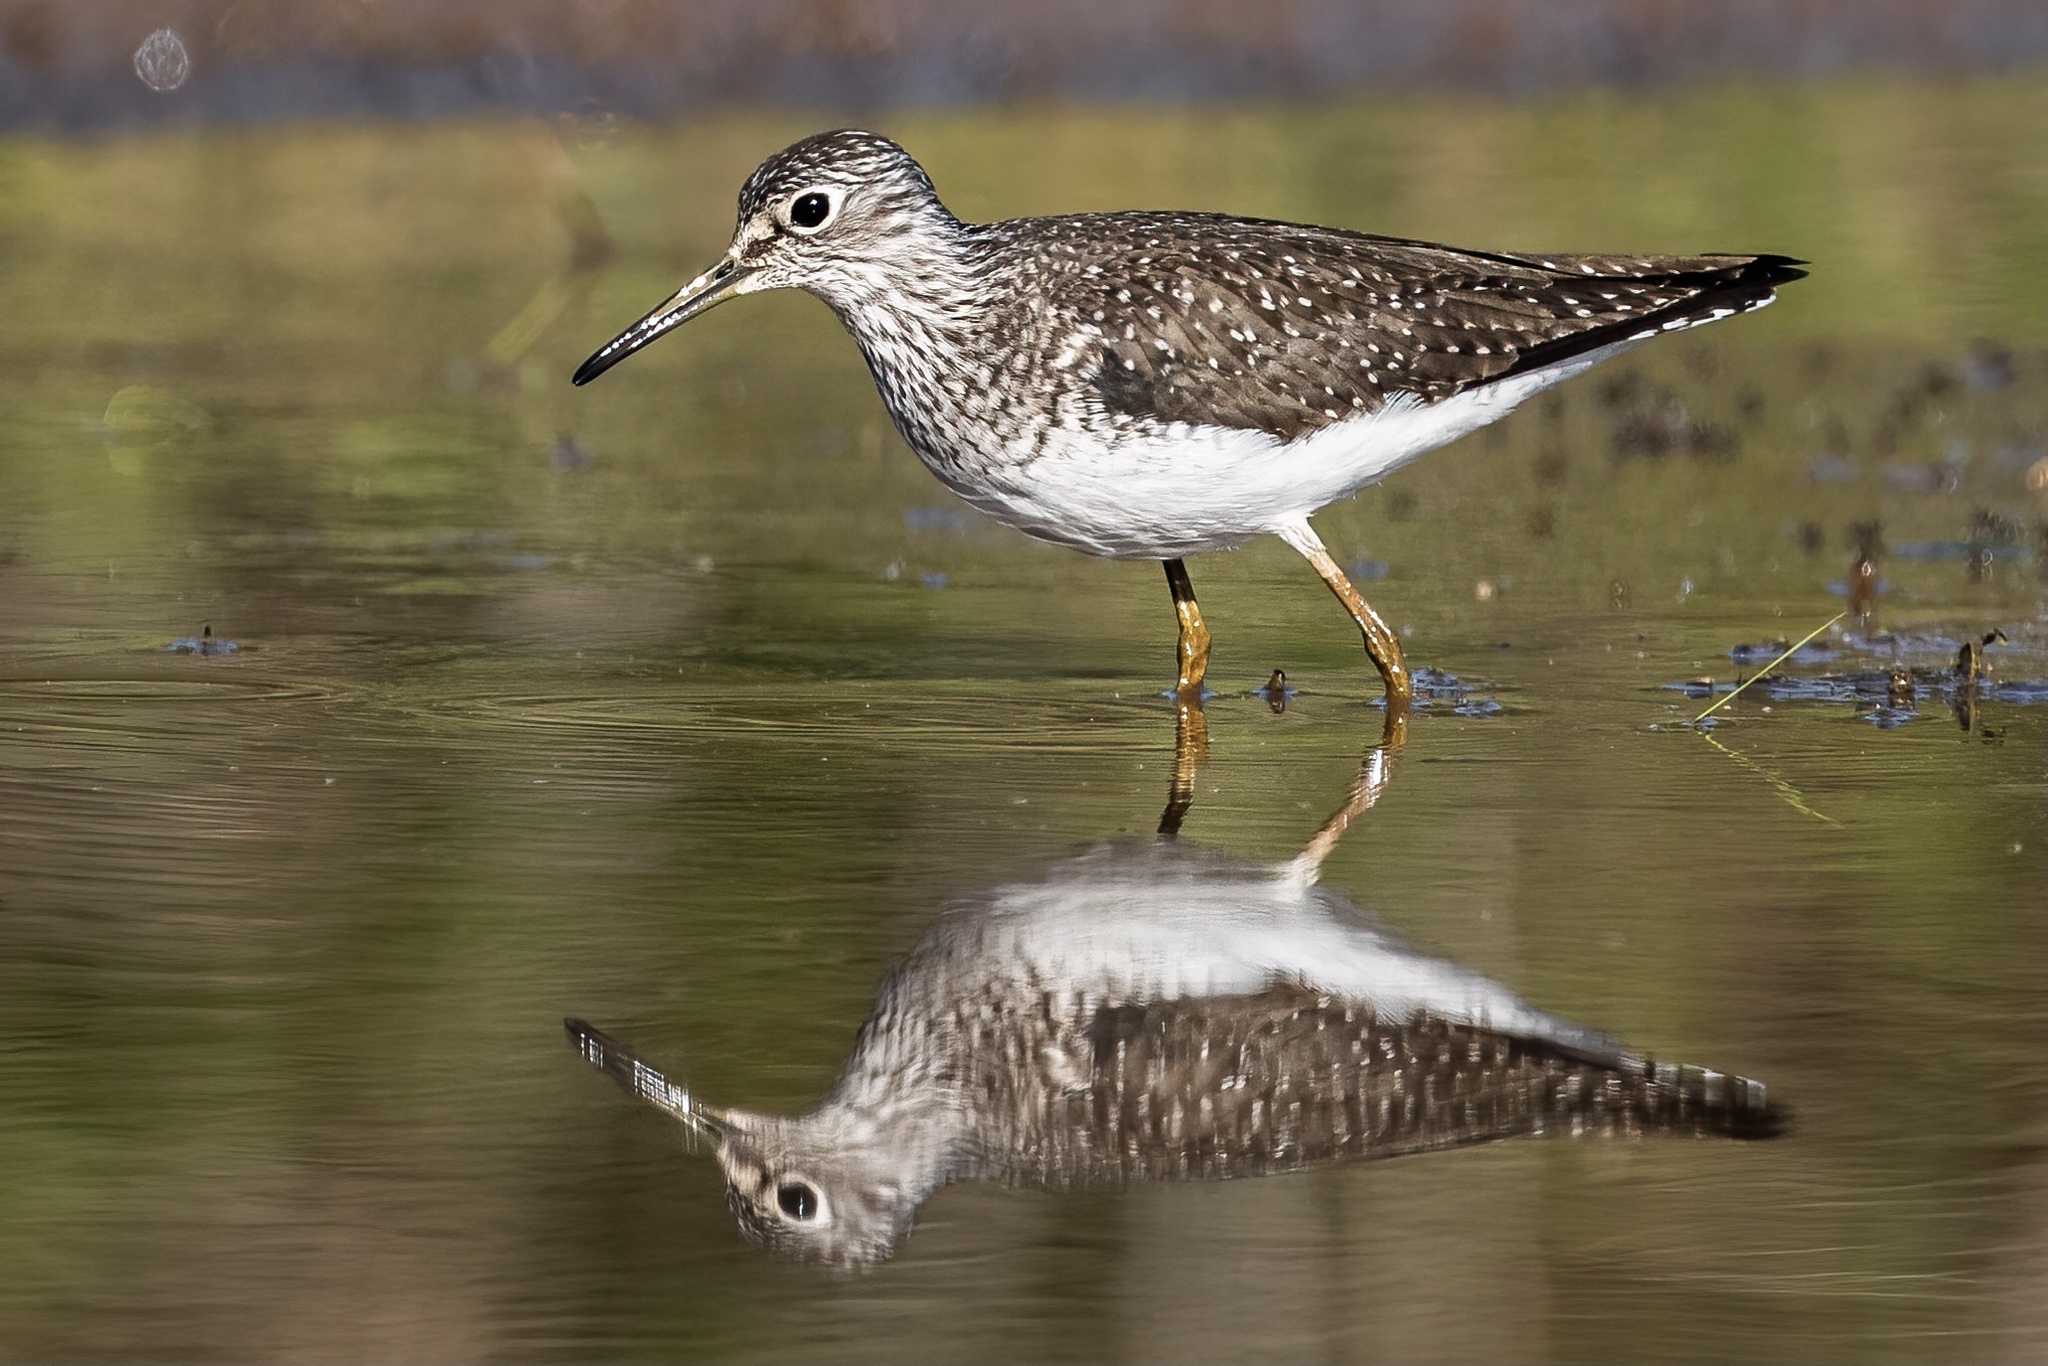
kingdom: Animalia
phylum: Chordata
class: Aves
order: Charadriiformes
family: Scolopacidae
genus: Tringa
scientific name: Tringa solitaria
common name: Solitary sandpiper
